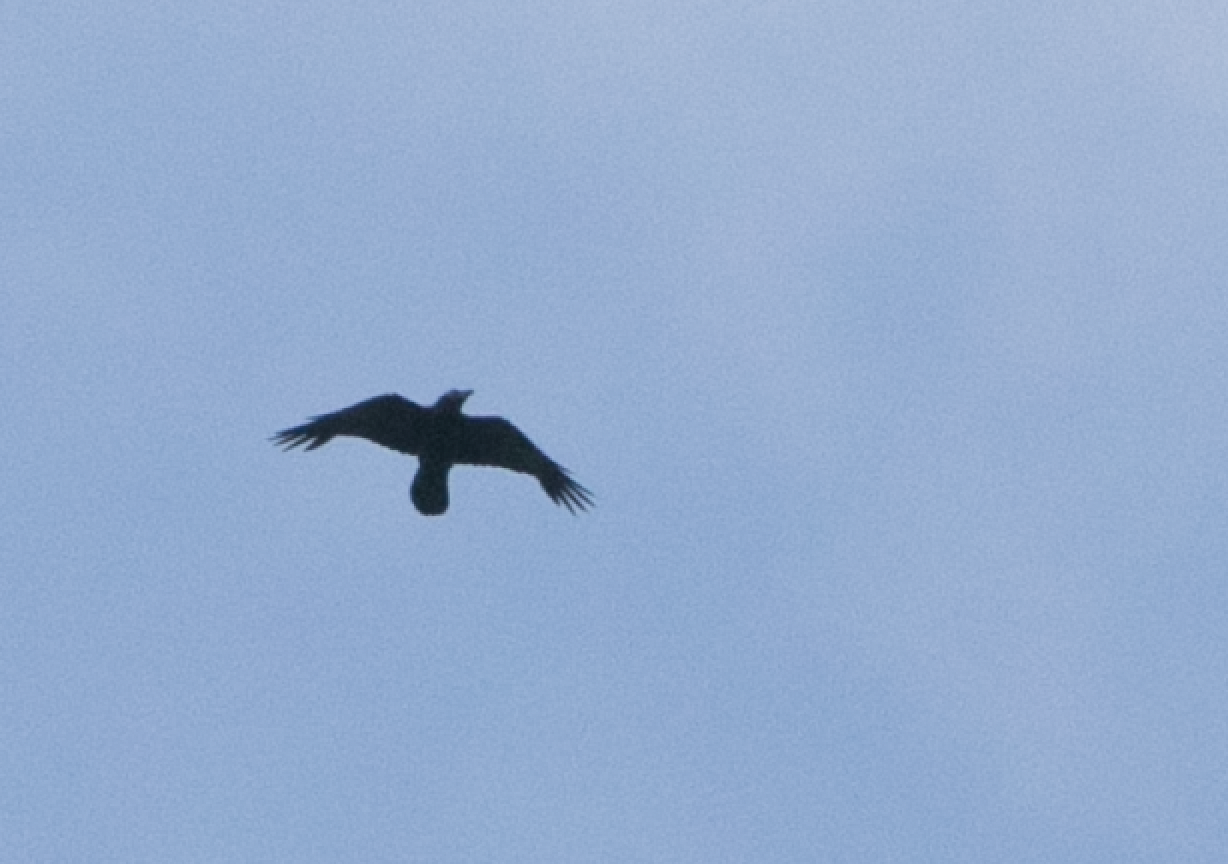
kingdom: Animalia
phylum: Chordata
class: Aves
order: Passeriformes
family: Corvidae
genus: Corvus
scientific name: Corvus corax
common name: Common raven
